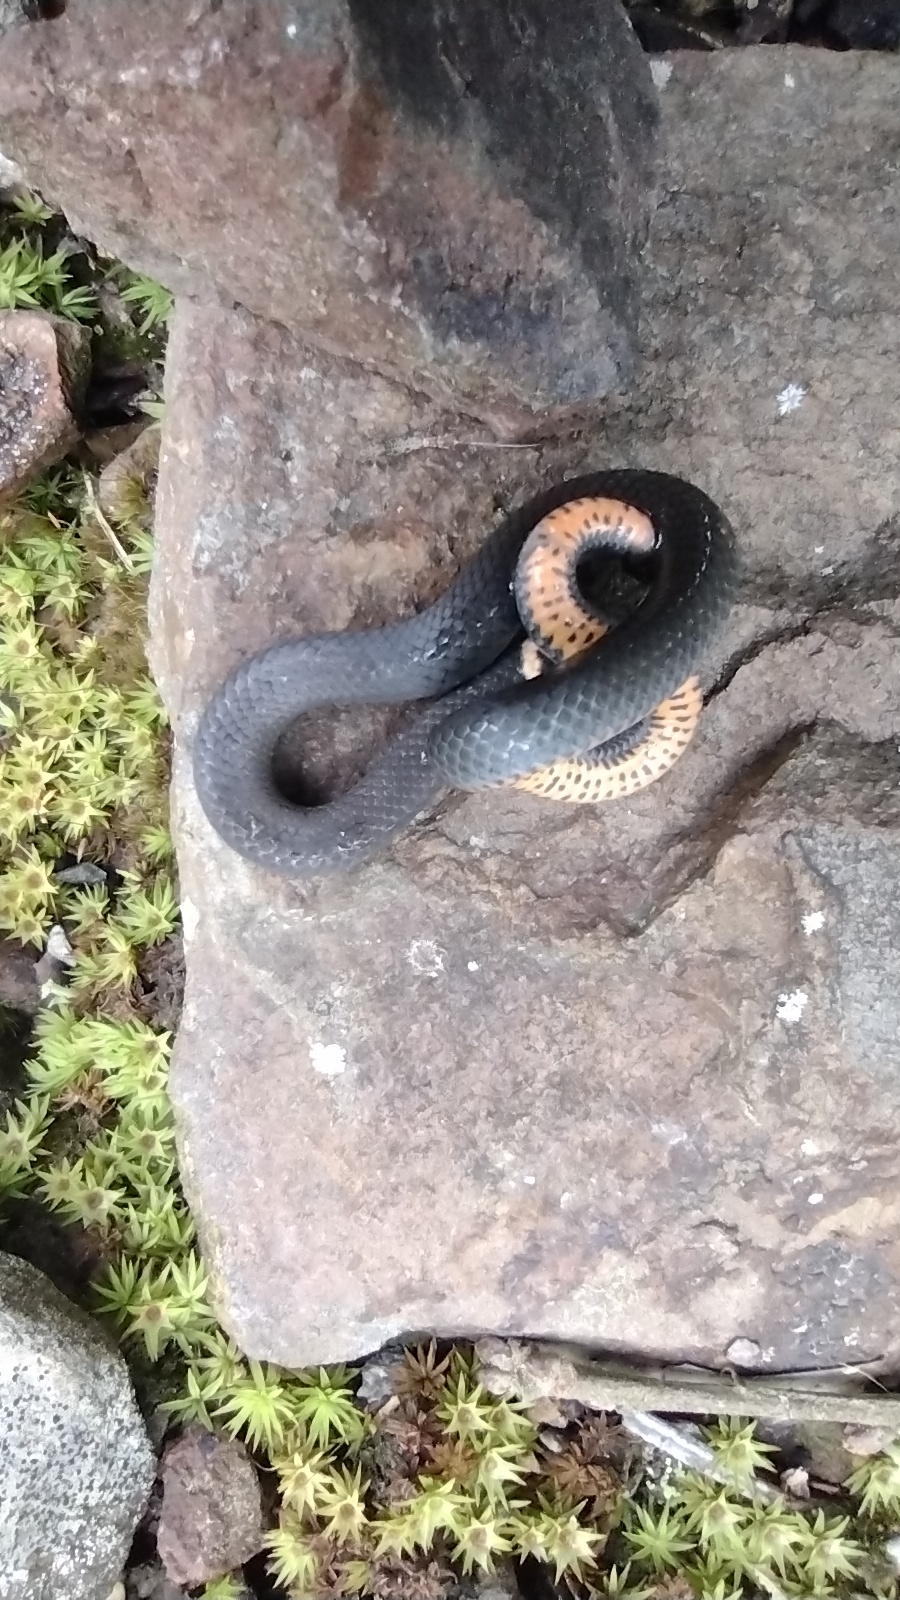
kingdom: Animalia
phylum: Chordata
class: Squamata
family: Colubridae
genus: Diadophis
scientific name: Diadophis punctatus
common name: Ringneck snake
